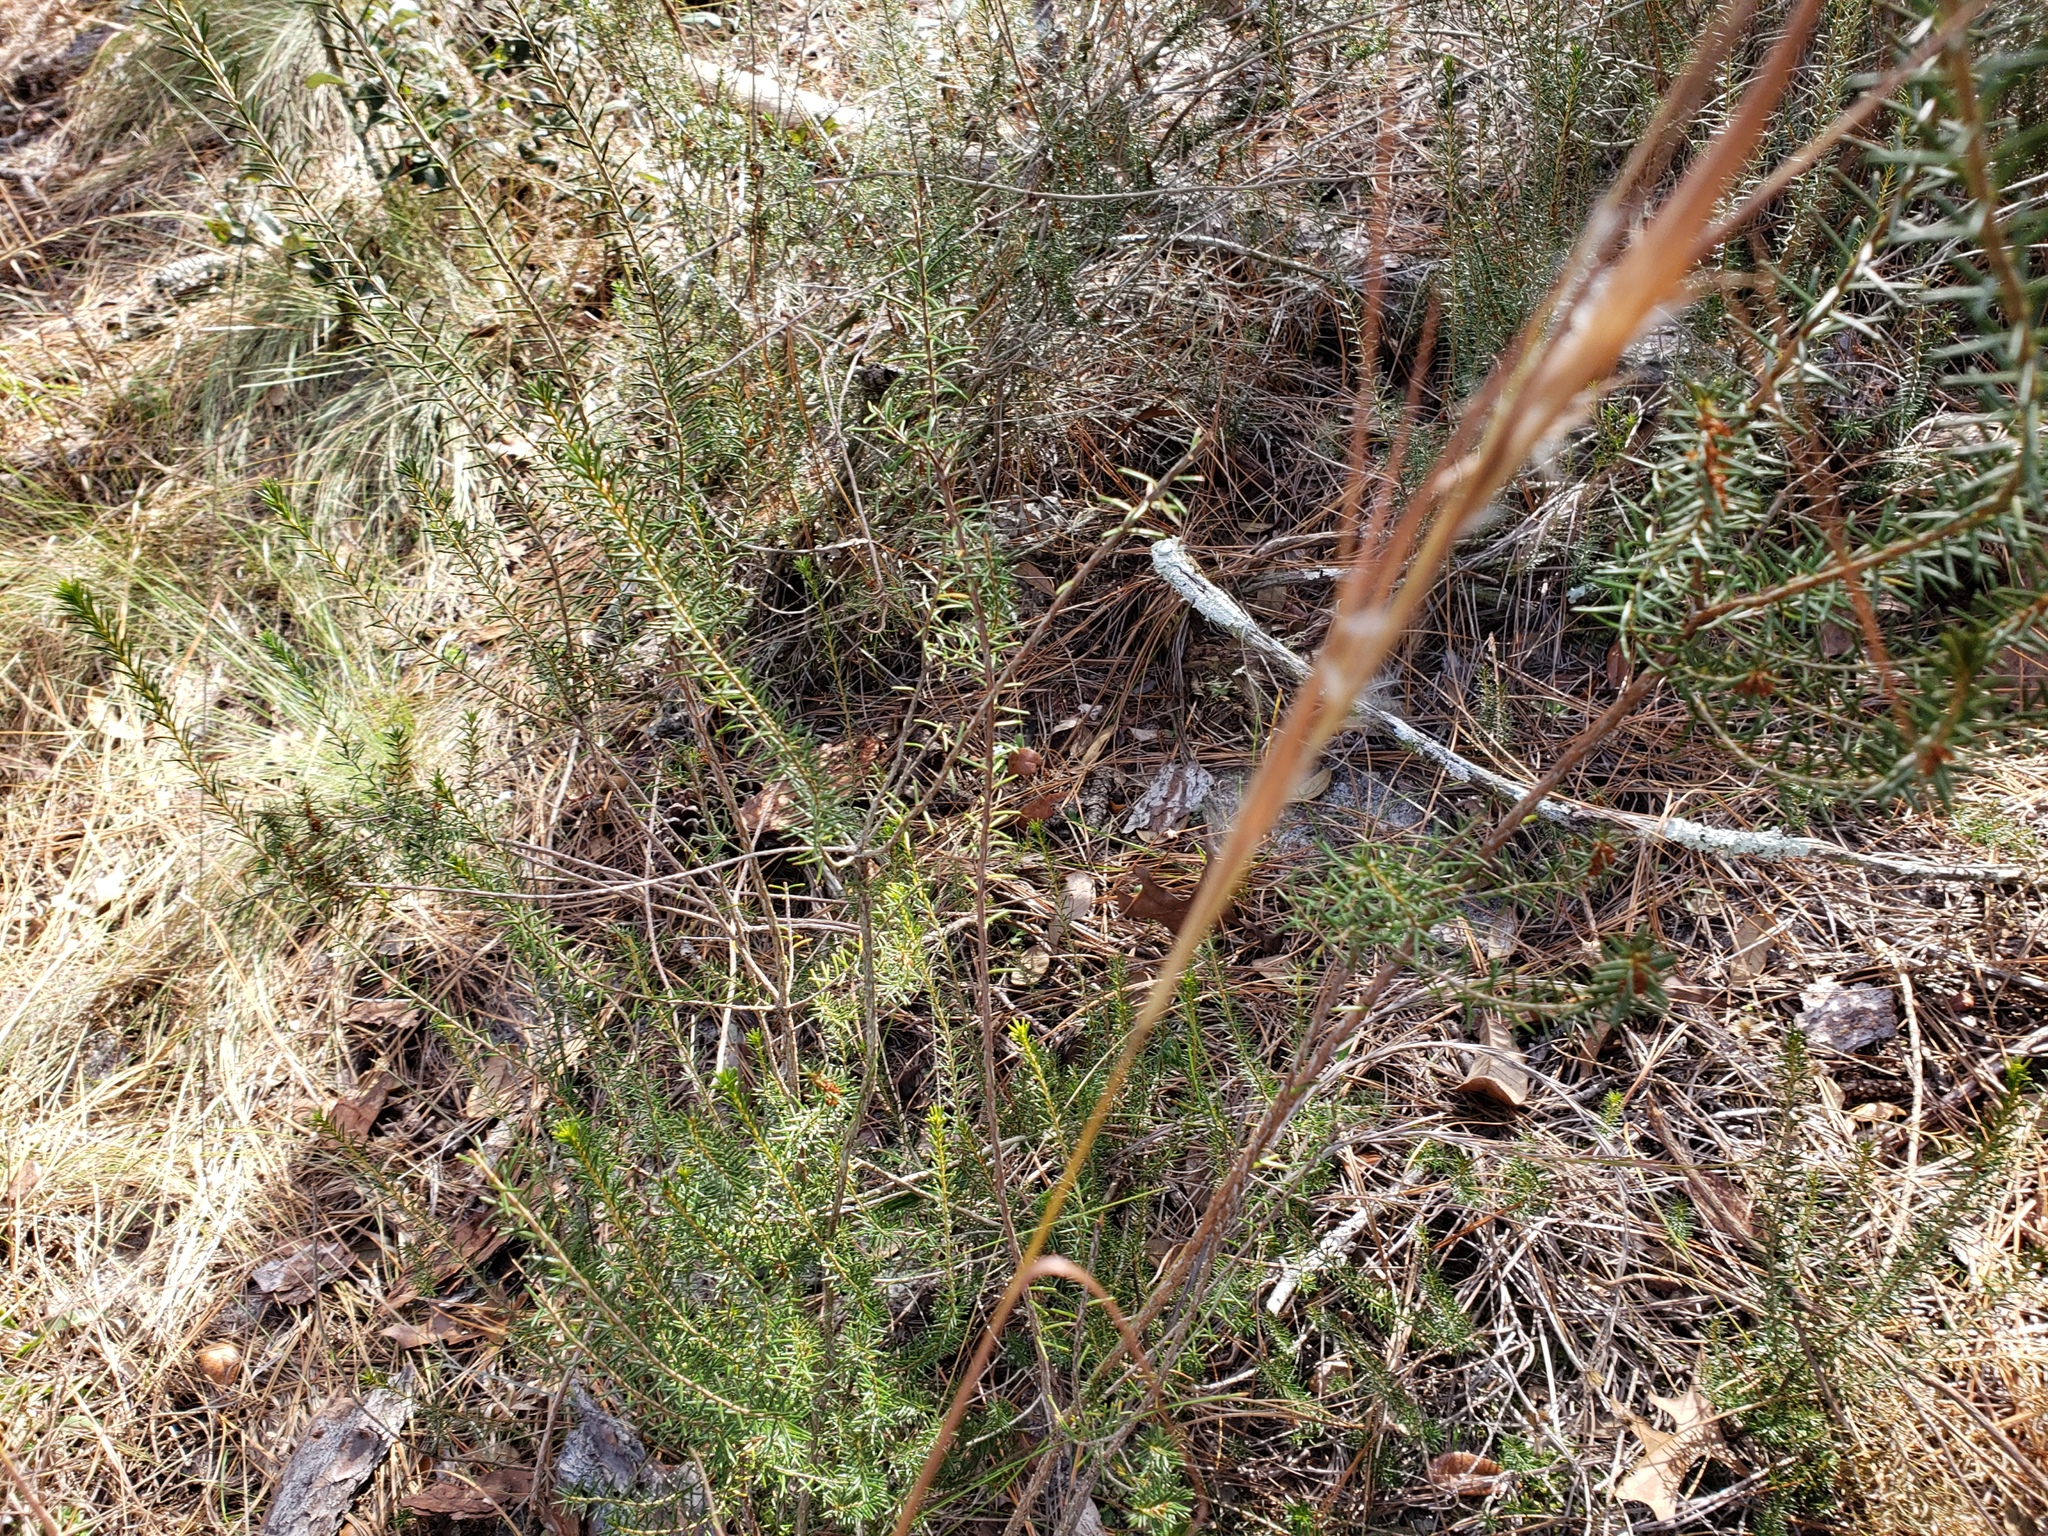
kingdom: Plantae
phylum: Tracheophyta
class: Magnoliopsida
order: Ericales
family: Ericaceae
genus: Ceratiola
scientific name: Ceratiola ericoides
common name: Sandhill-rosemary
